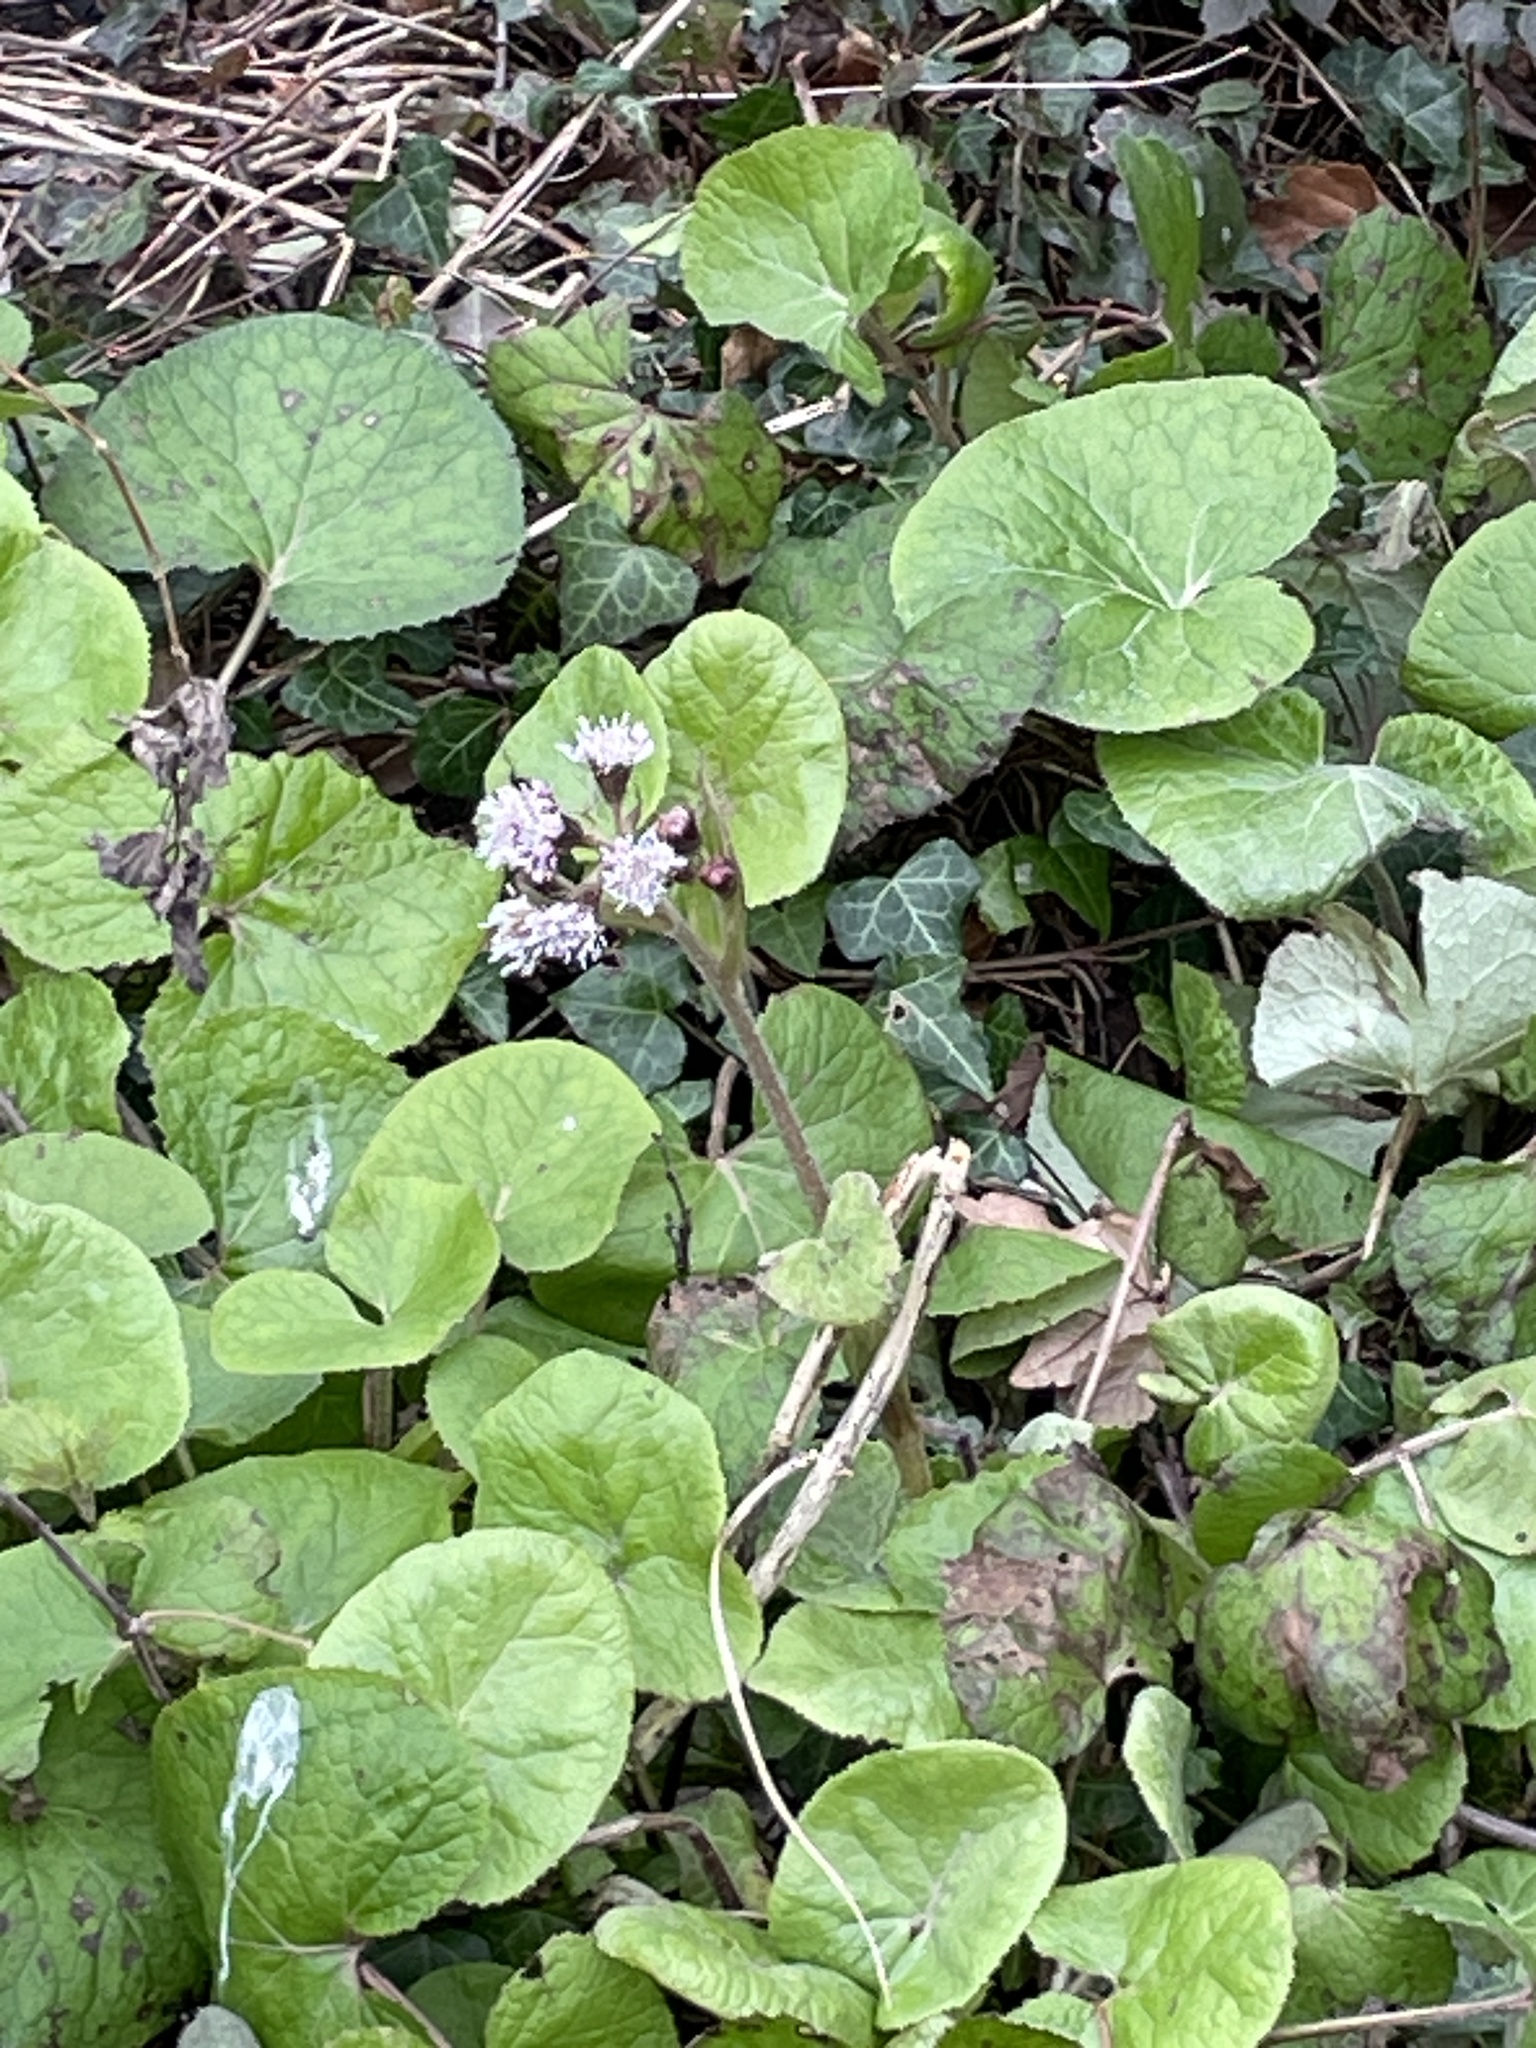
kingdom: Plantae
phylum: Tracheophyta
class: Magnoliopsida
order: Asterales
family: Asteraceae
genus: Petasites
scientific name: Petasites pyrenaicus
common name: Winter heliotrope
